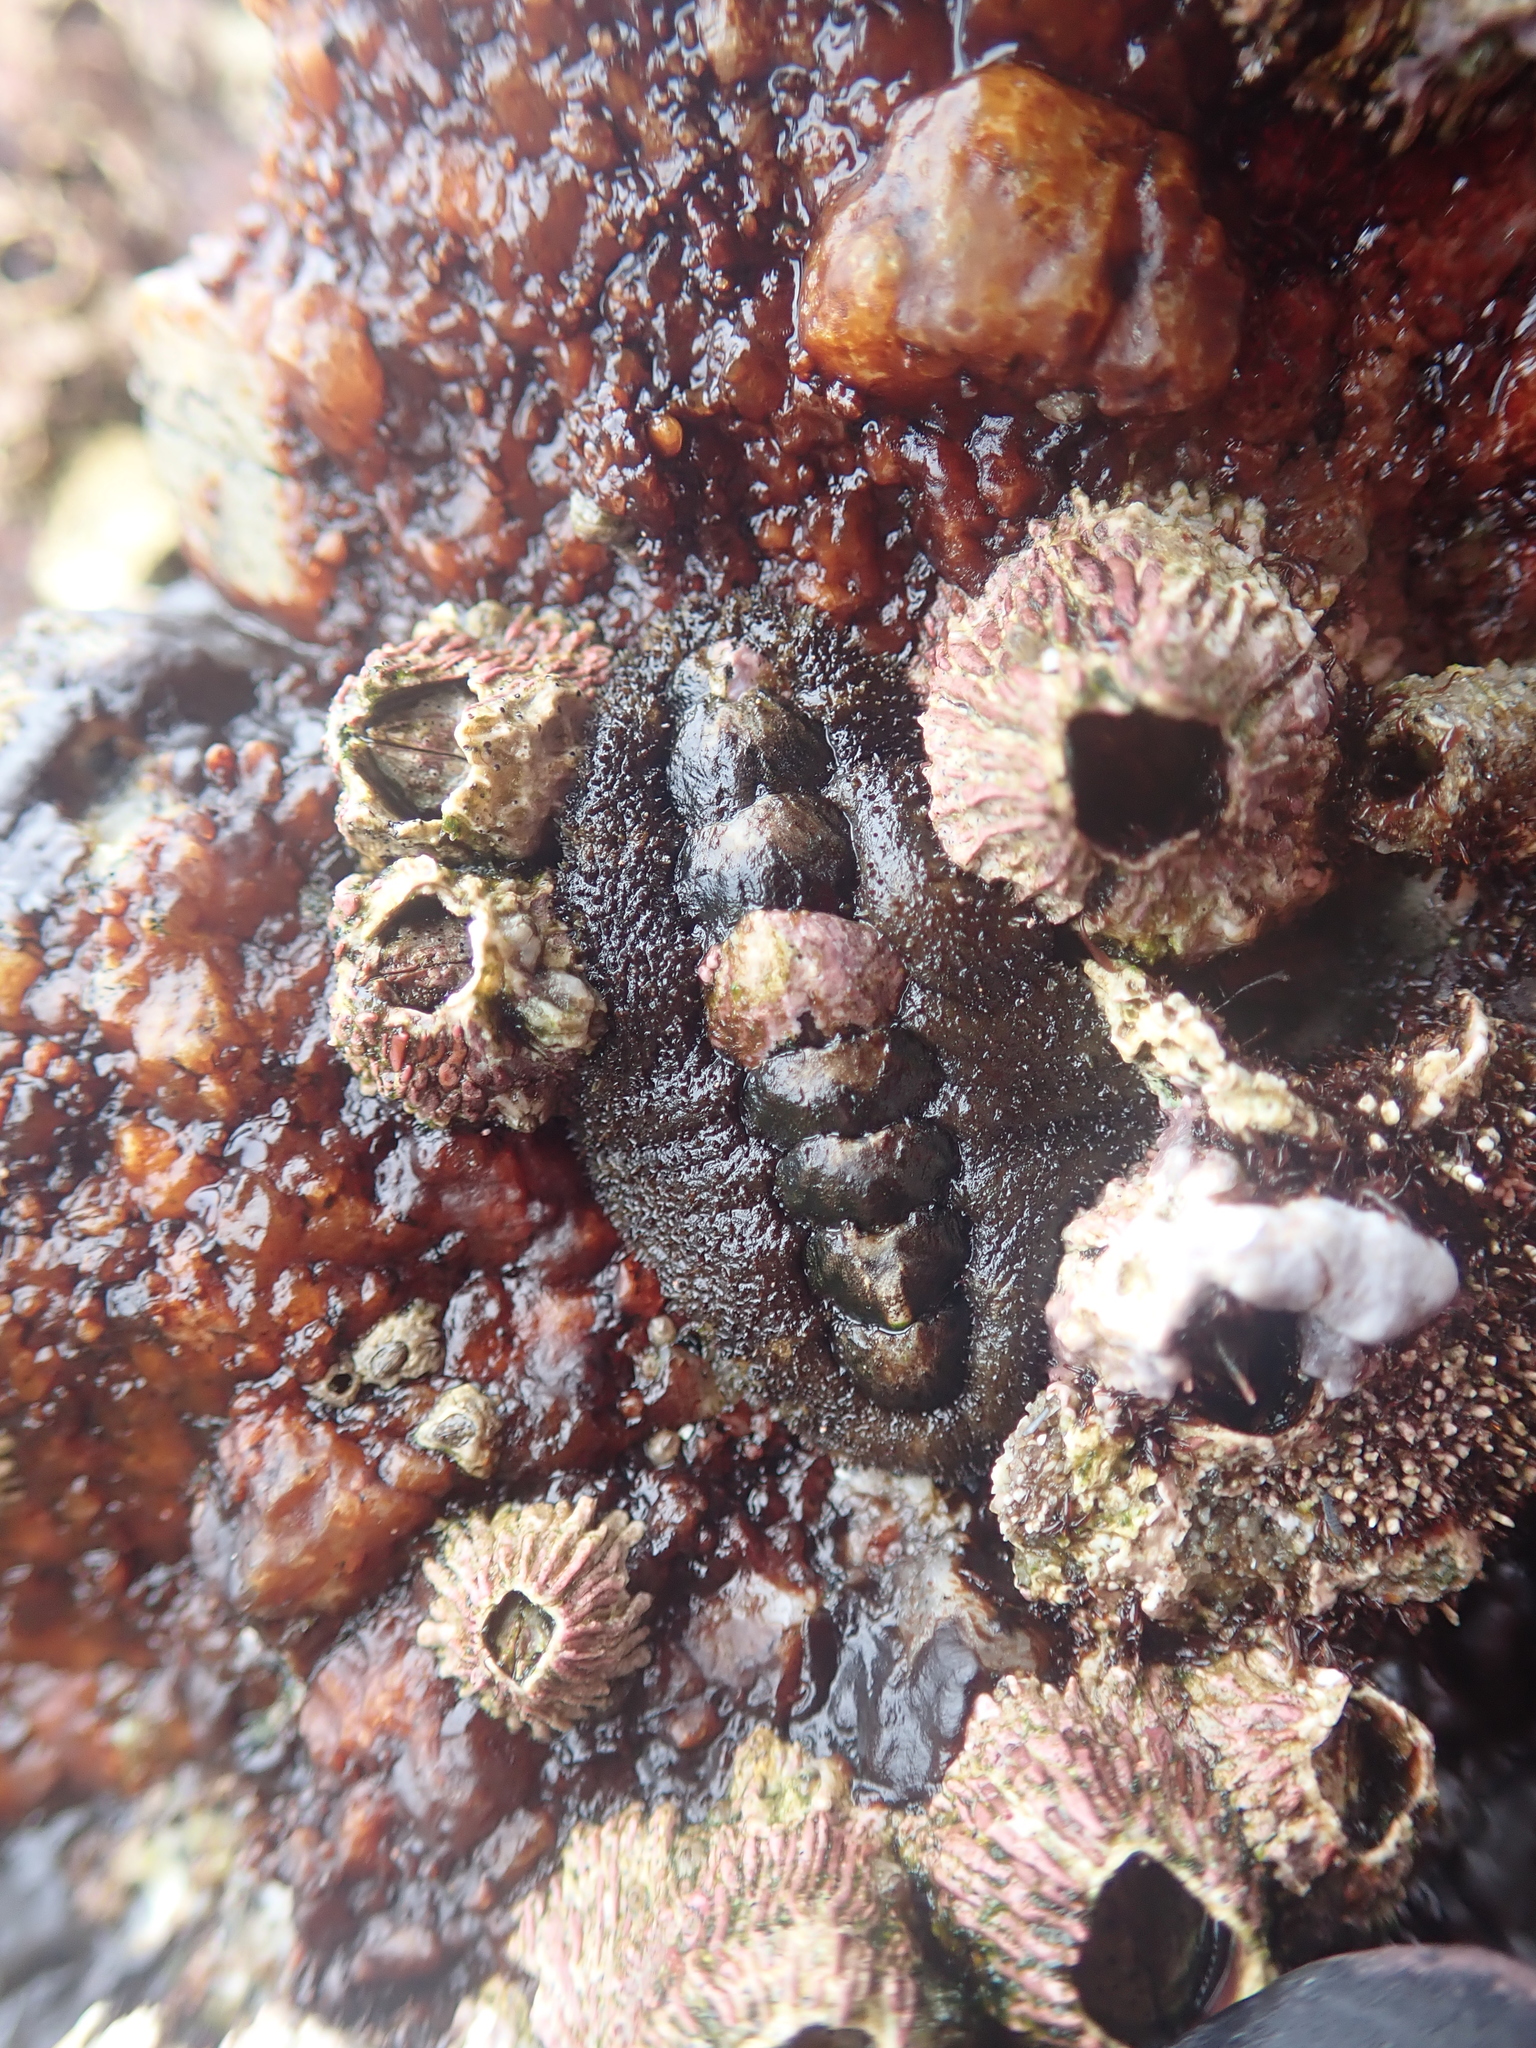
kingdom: Animalia
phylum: Mollusca
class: Polyplacophora
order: Chitonida
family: Tonicellidae
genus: Nuttallina
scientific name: Nuttallina californica
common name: California nuttall chiton
